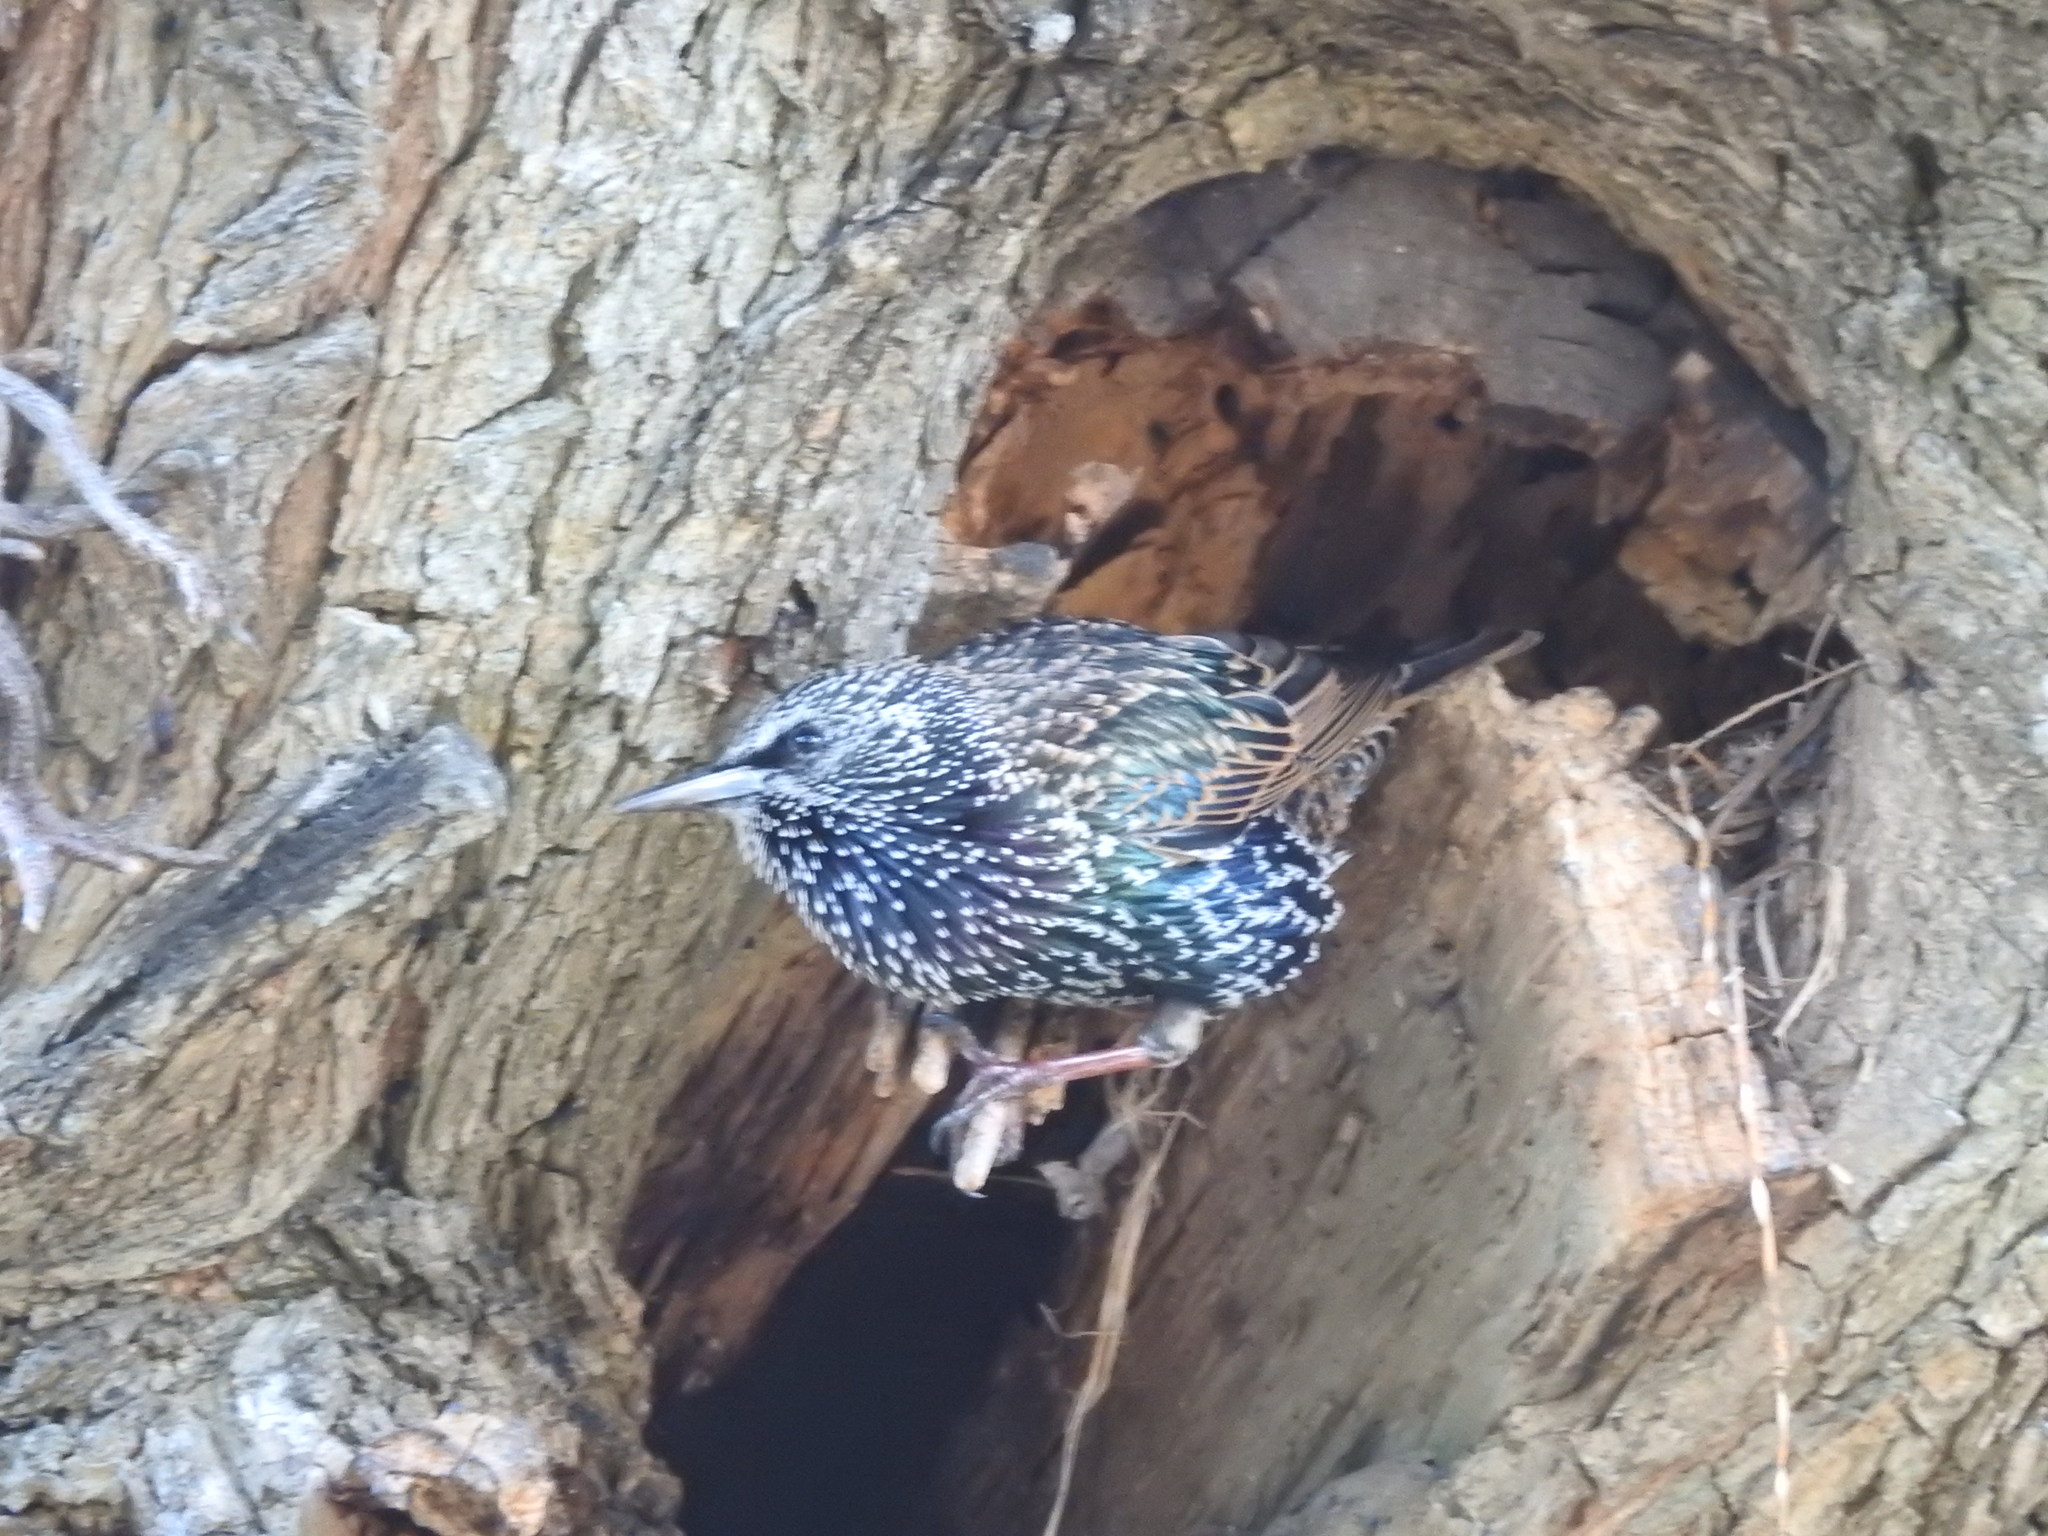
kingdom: Animalia
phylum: Chordata
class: Aves
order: Passeriformes
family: Sturnidae
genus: Sturnus
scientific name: Sturnus vulgaris
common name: Common starling
